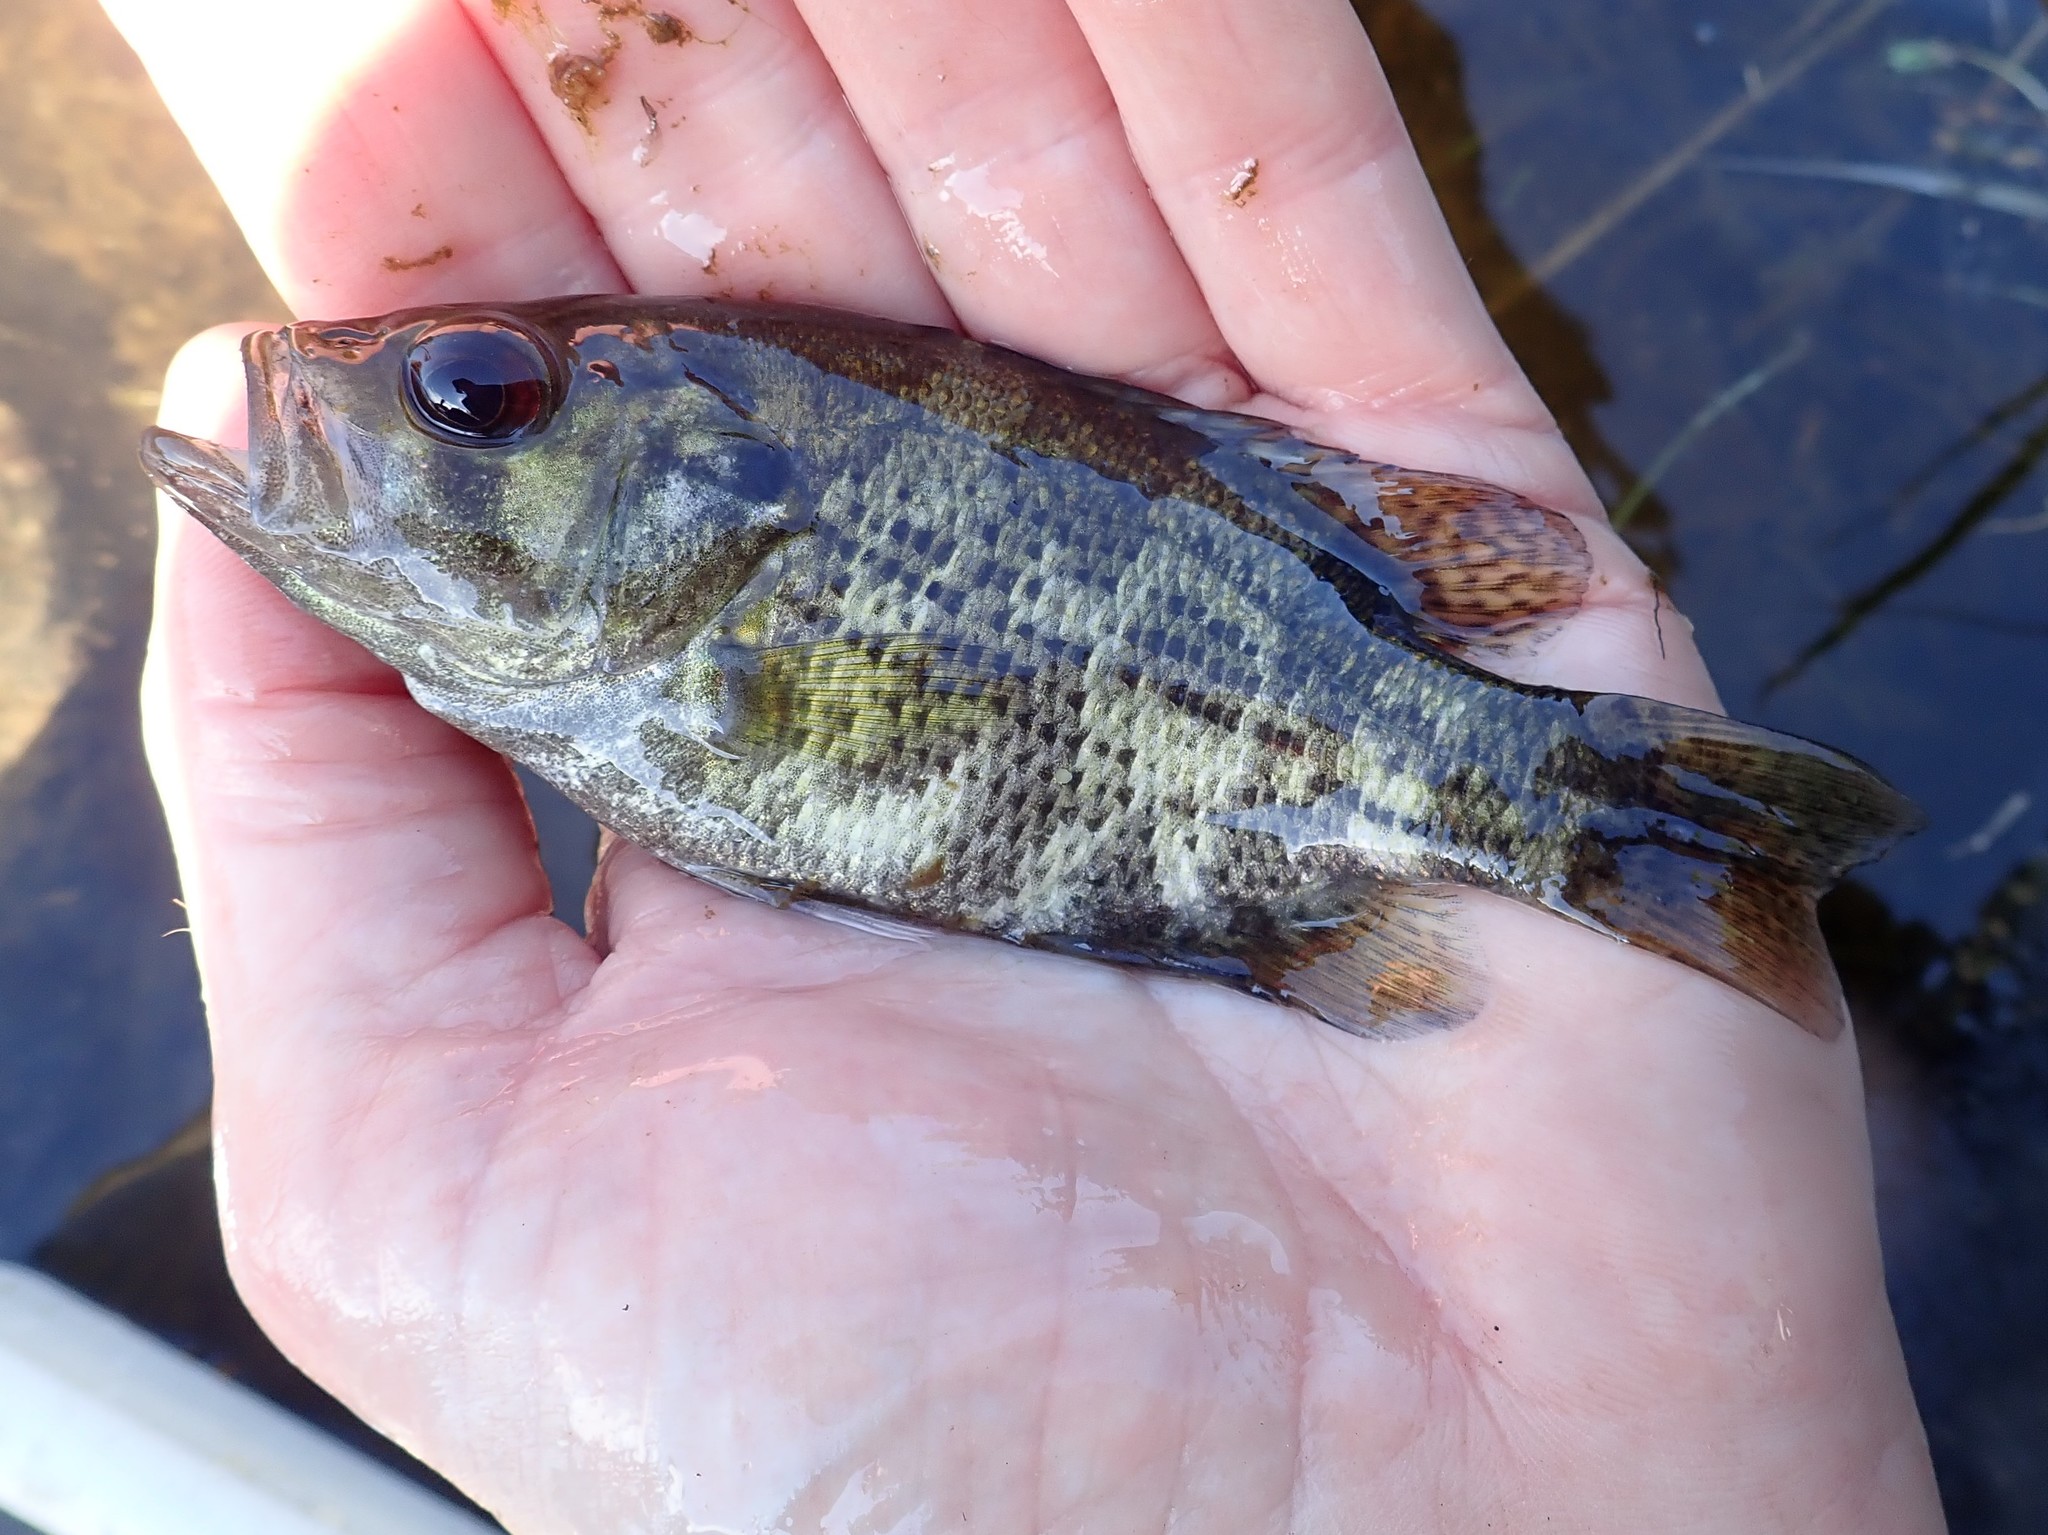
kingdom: Animalia
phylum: Chordata
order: Perciformes
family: Centrarchidae
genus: Ambloplites
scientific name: Ambloplites rupestris
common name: Rock bass
